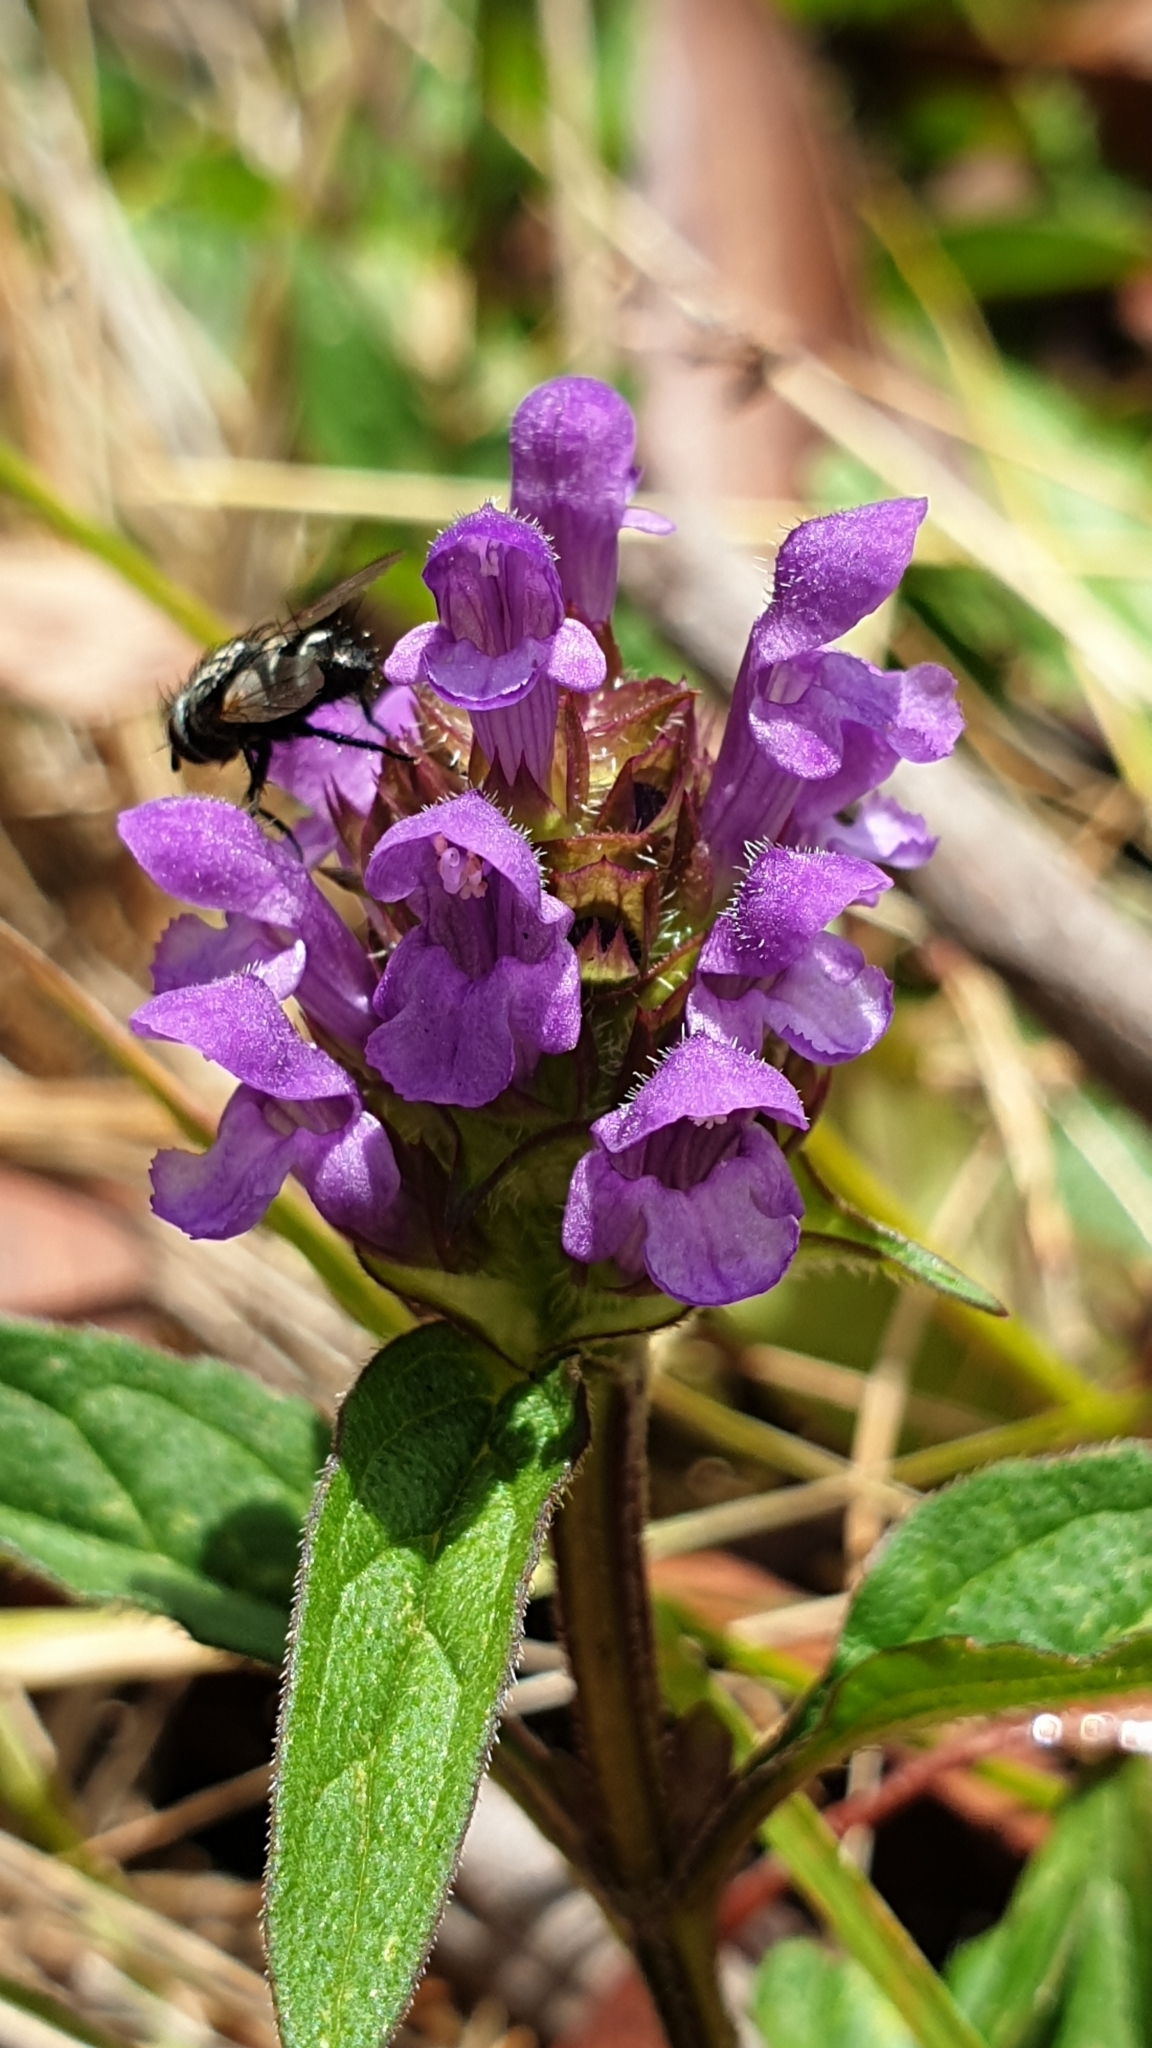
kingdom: Plantae
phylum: Tracheophyta
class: Magnoliopsida
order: Lamiales
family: Lamiaceae
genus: Prunella
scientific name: Prunella vulgaris
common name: Heal-all
